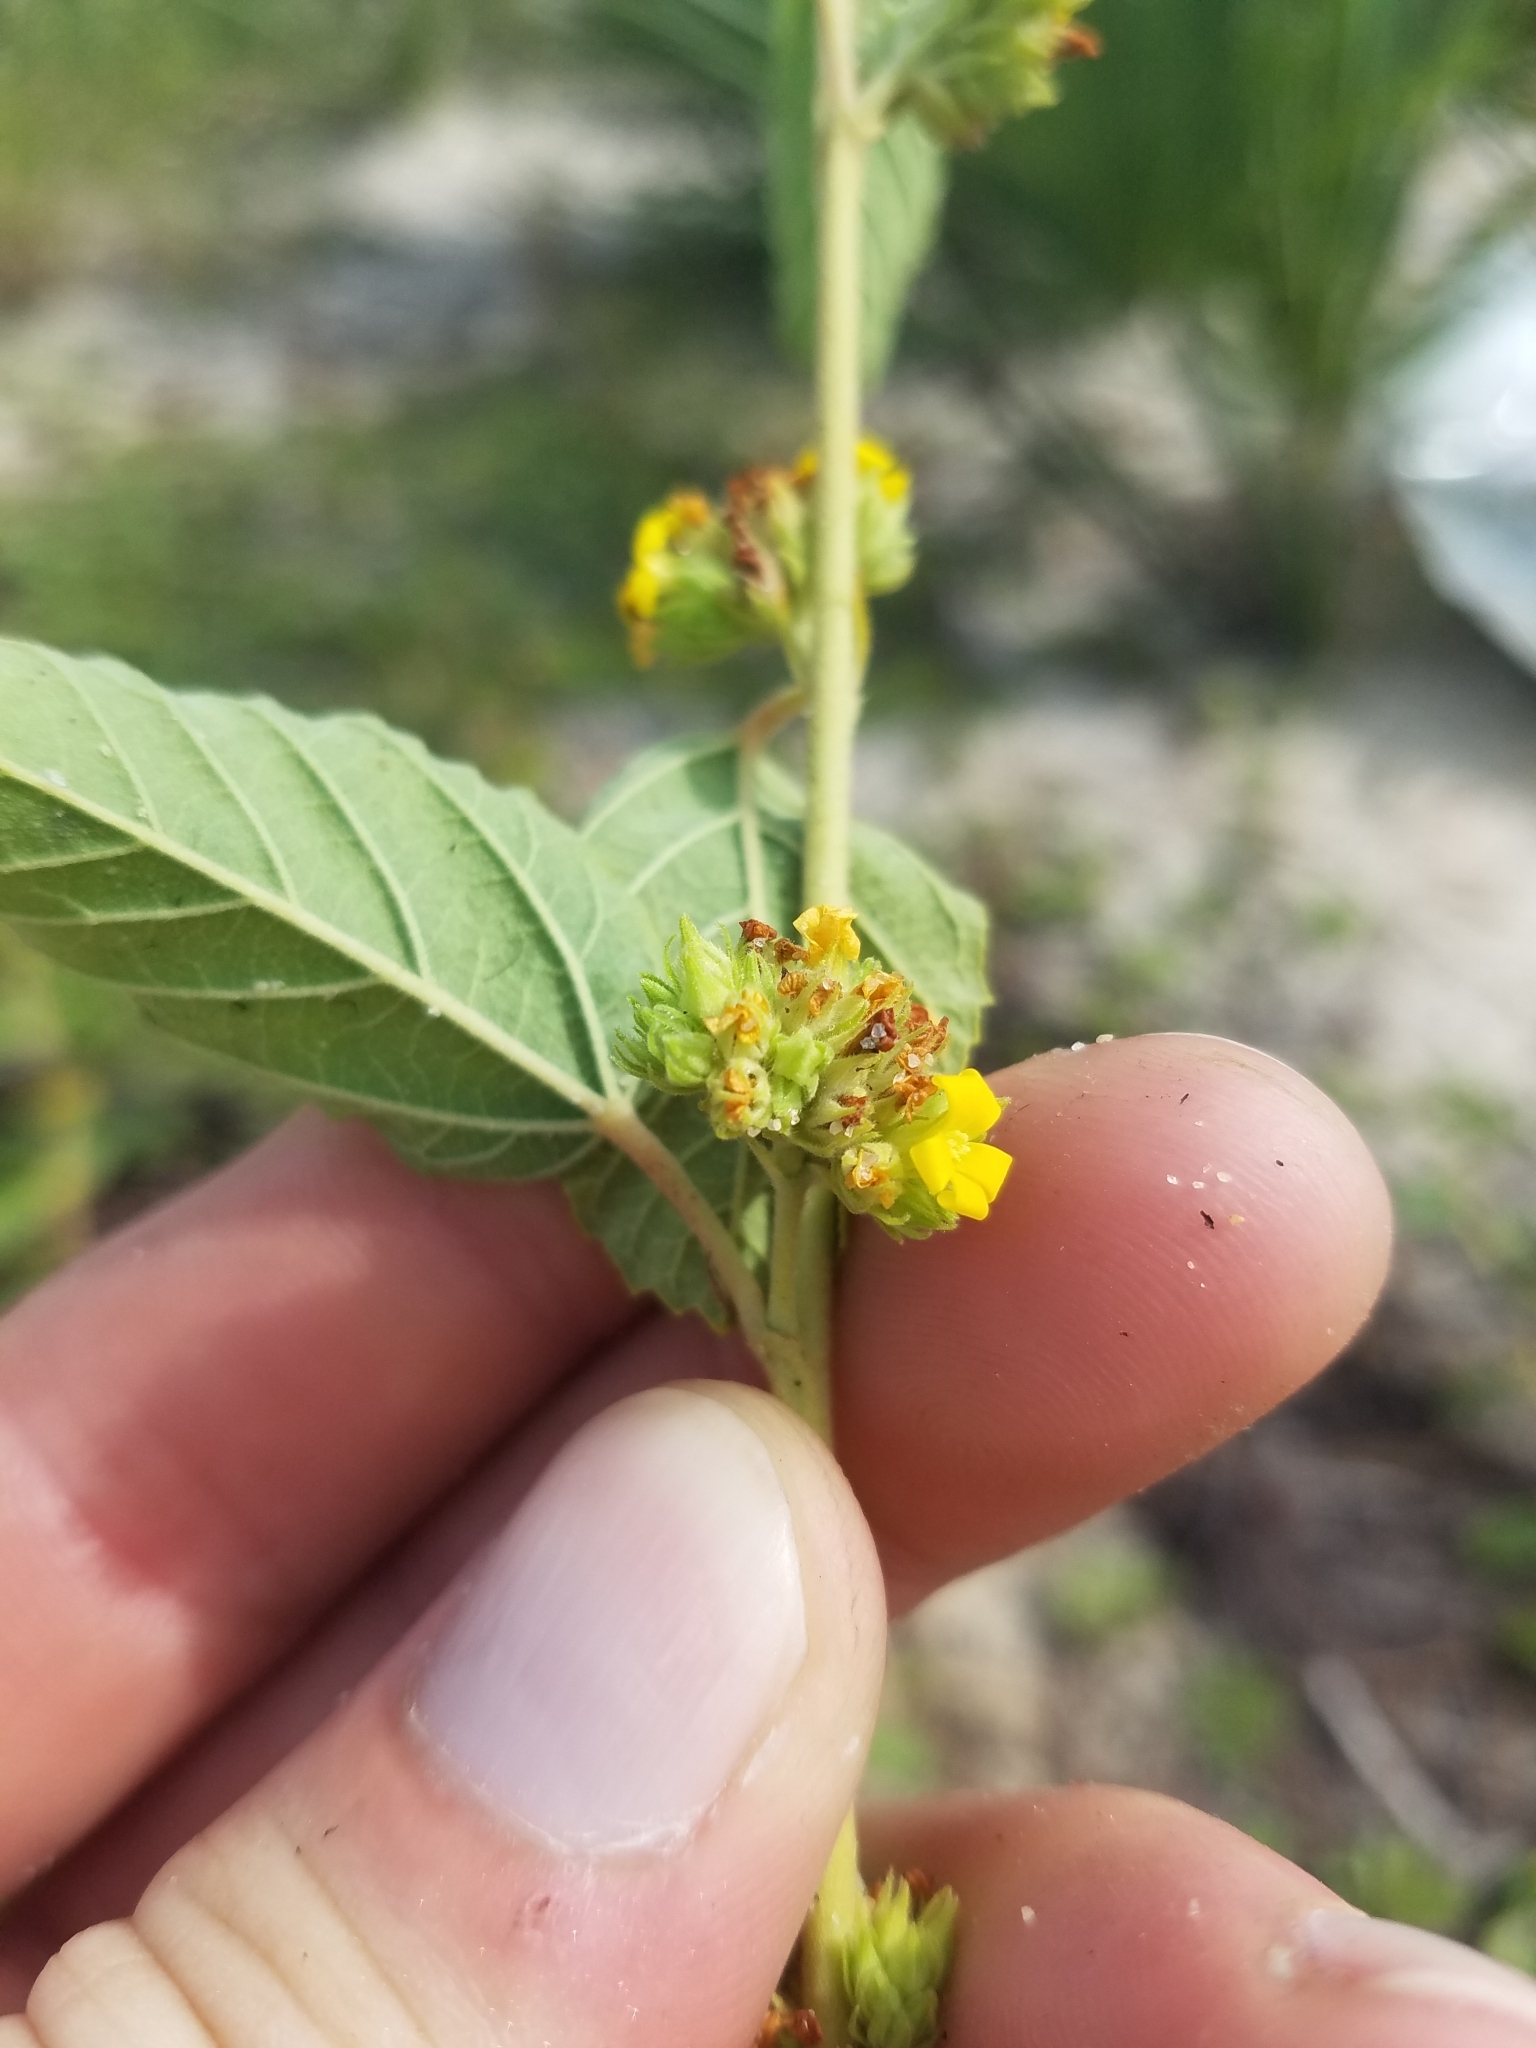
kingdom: Plantae
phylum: Tracheophyta
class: Magnoliopsida
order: Malvales
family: Malvaceae
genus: Waltheria
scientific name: Waltheria bahamensis
